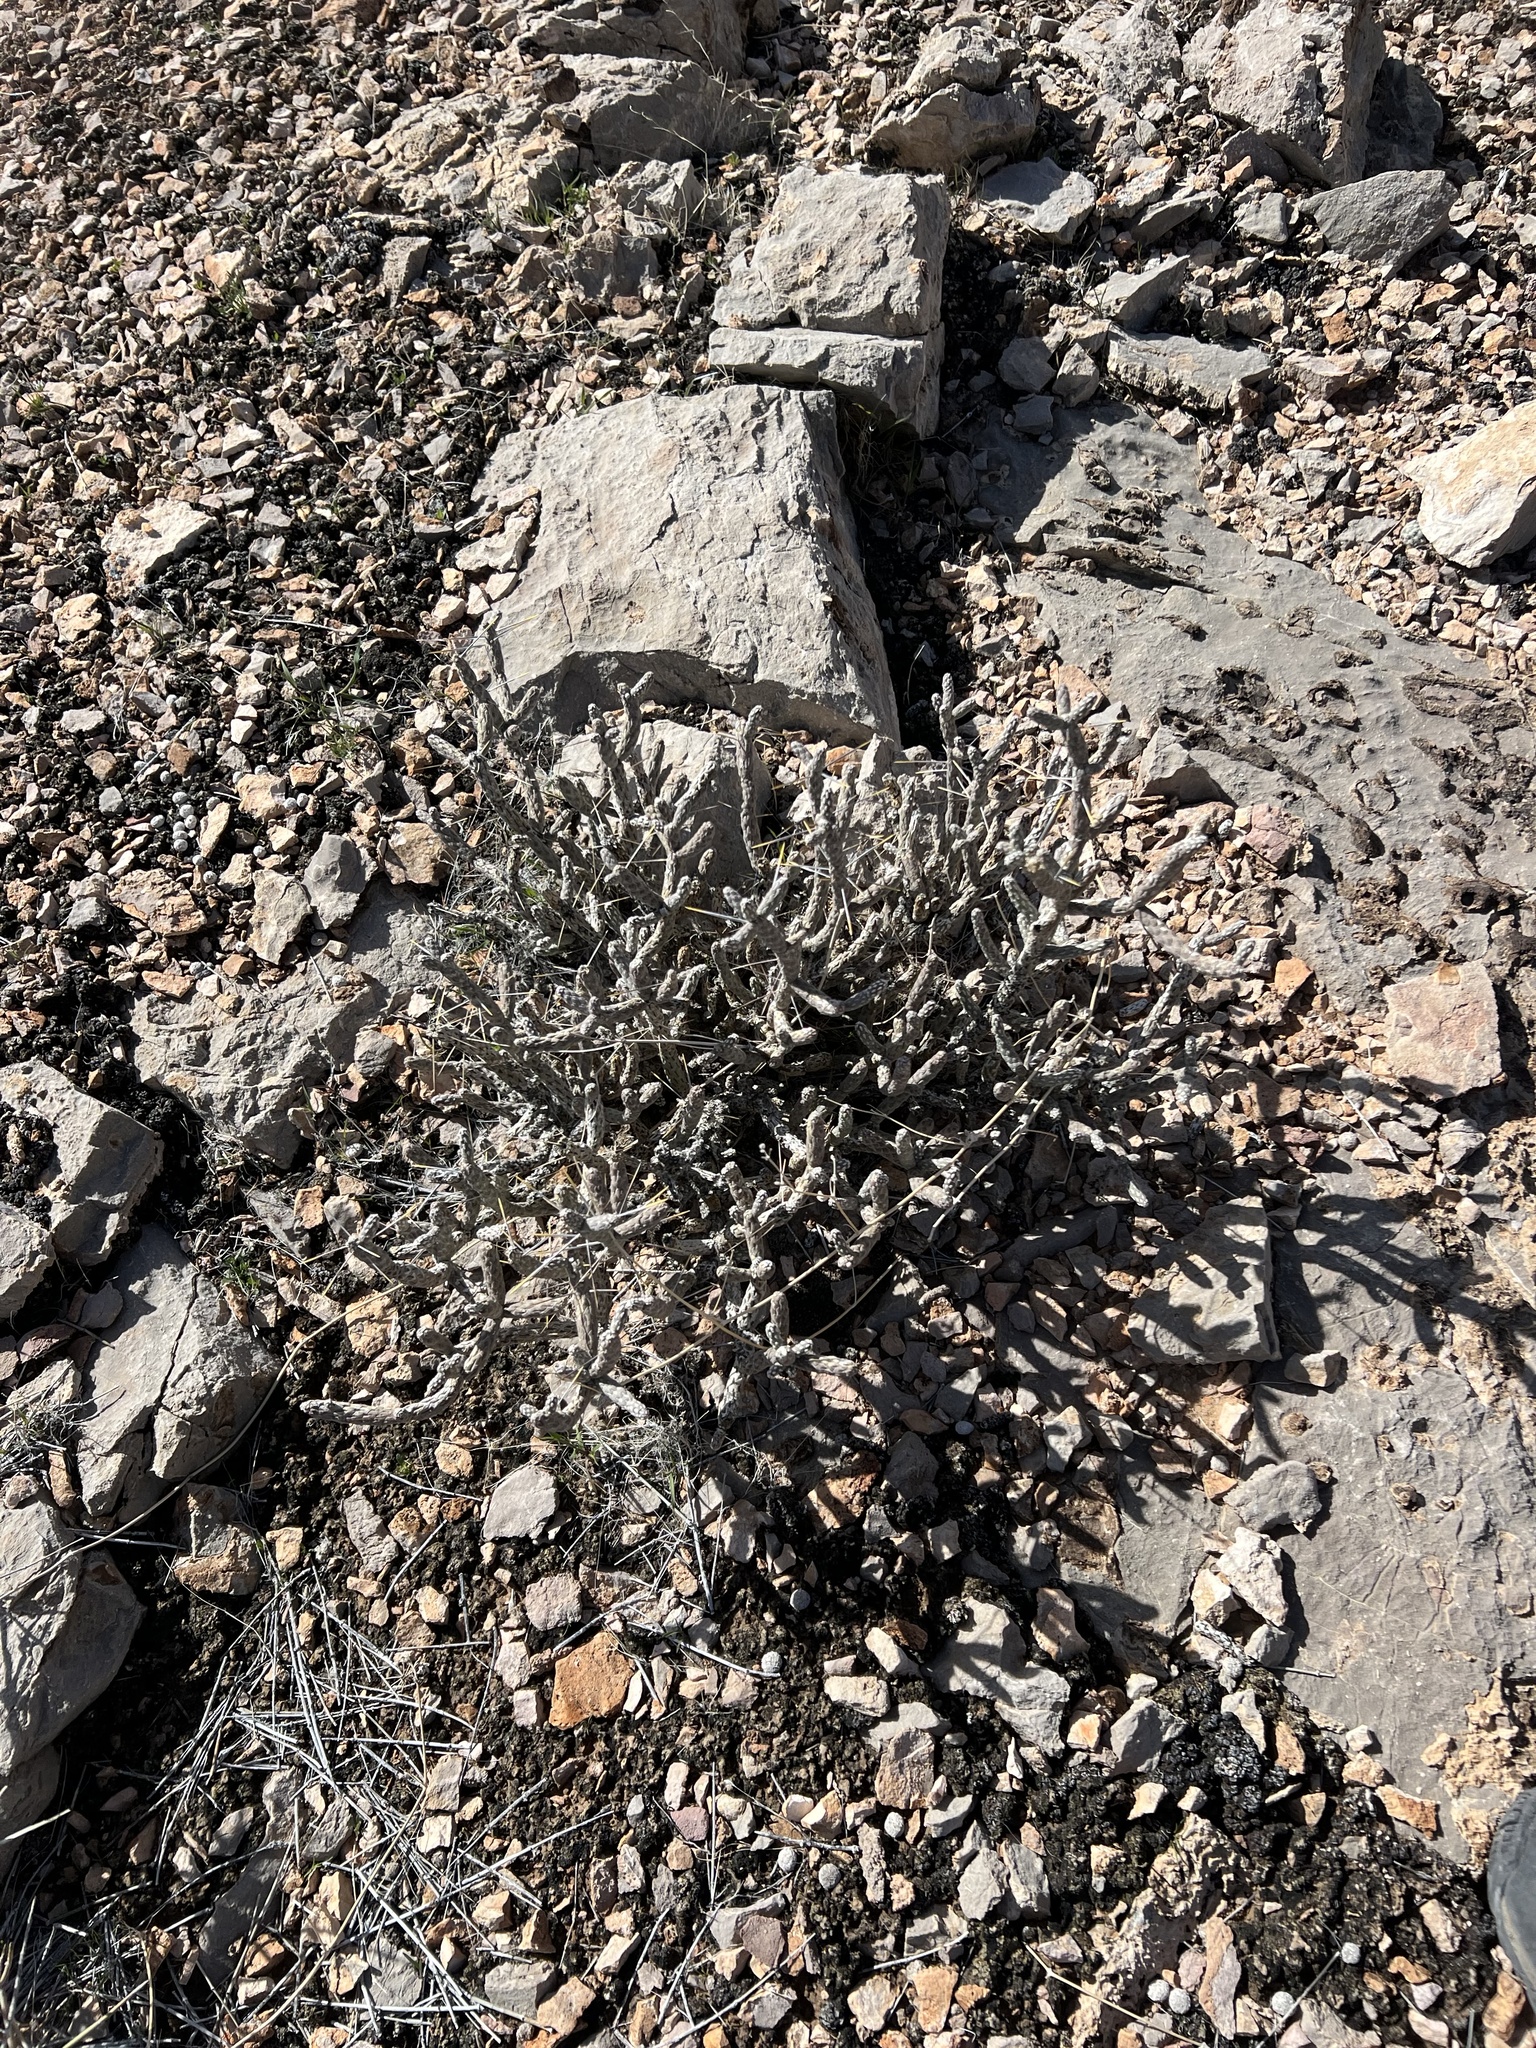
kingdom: Plantae
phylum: Tracheophyta
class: Magnoliopsida
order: Caryophyllales
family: Cactaceae
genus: Cylindropuntia
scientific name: Cylindropuntia ramosissima
